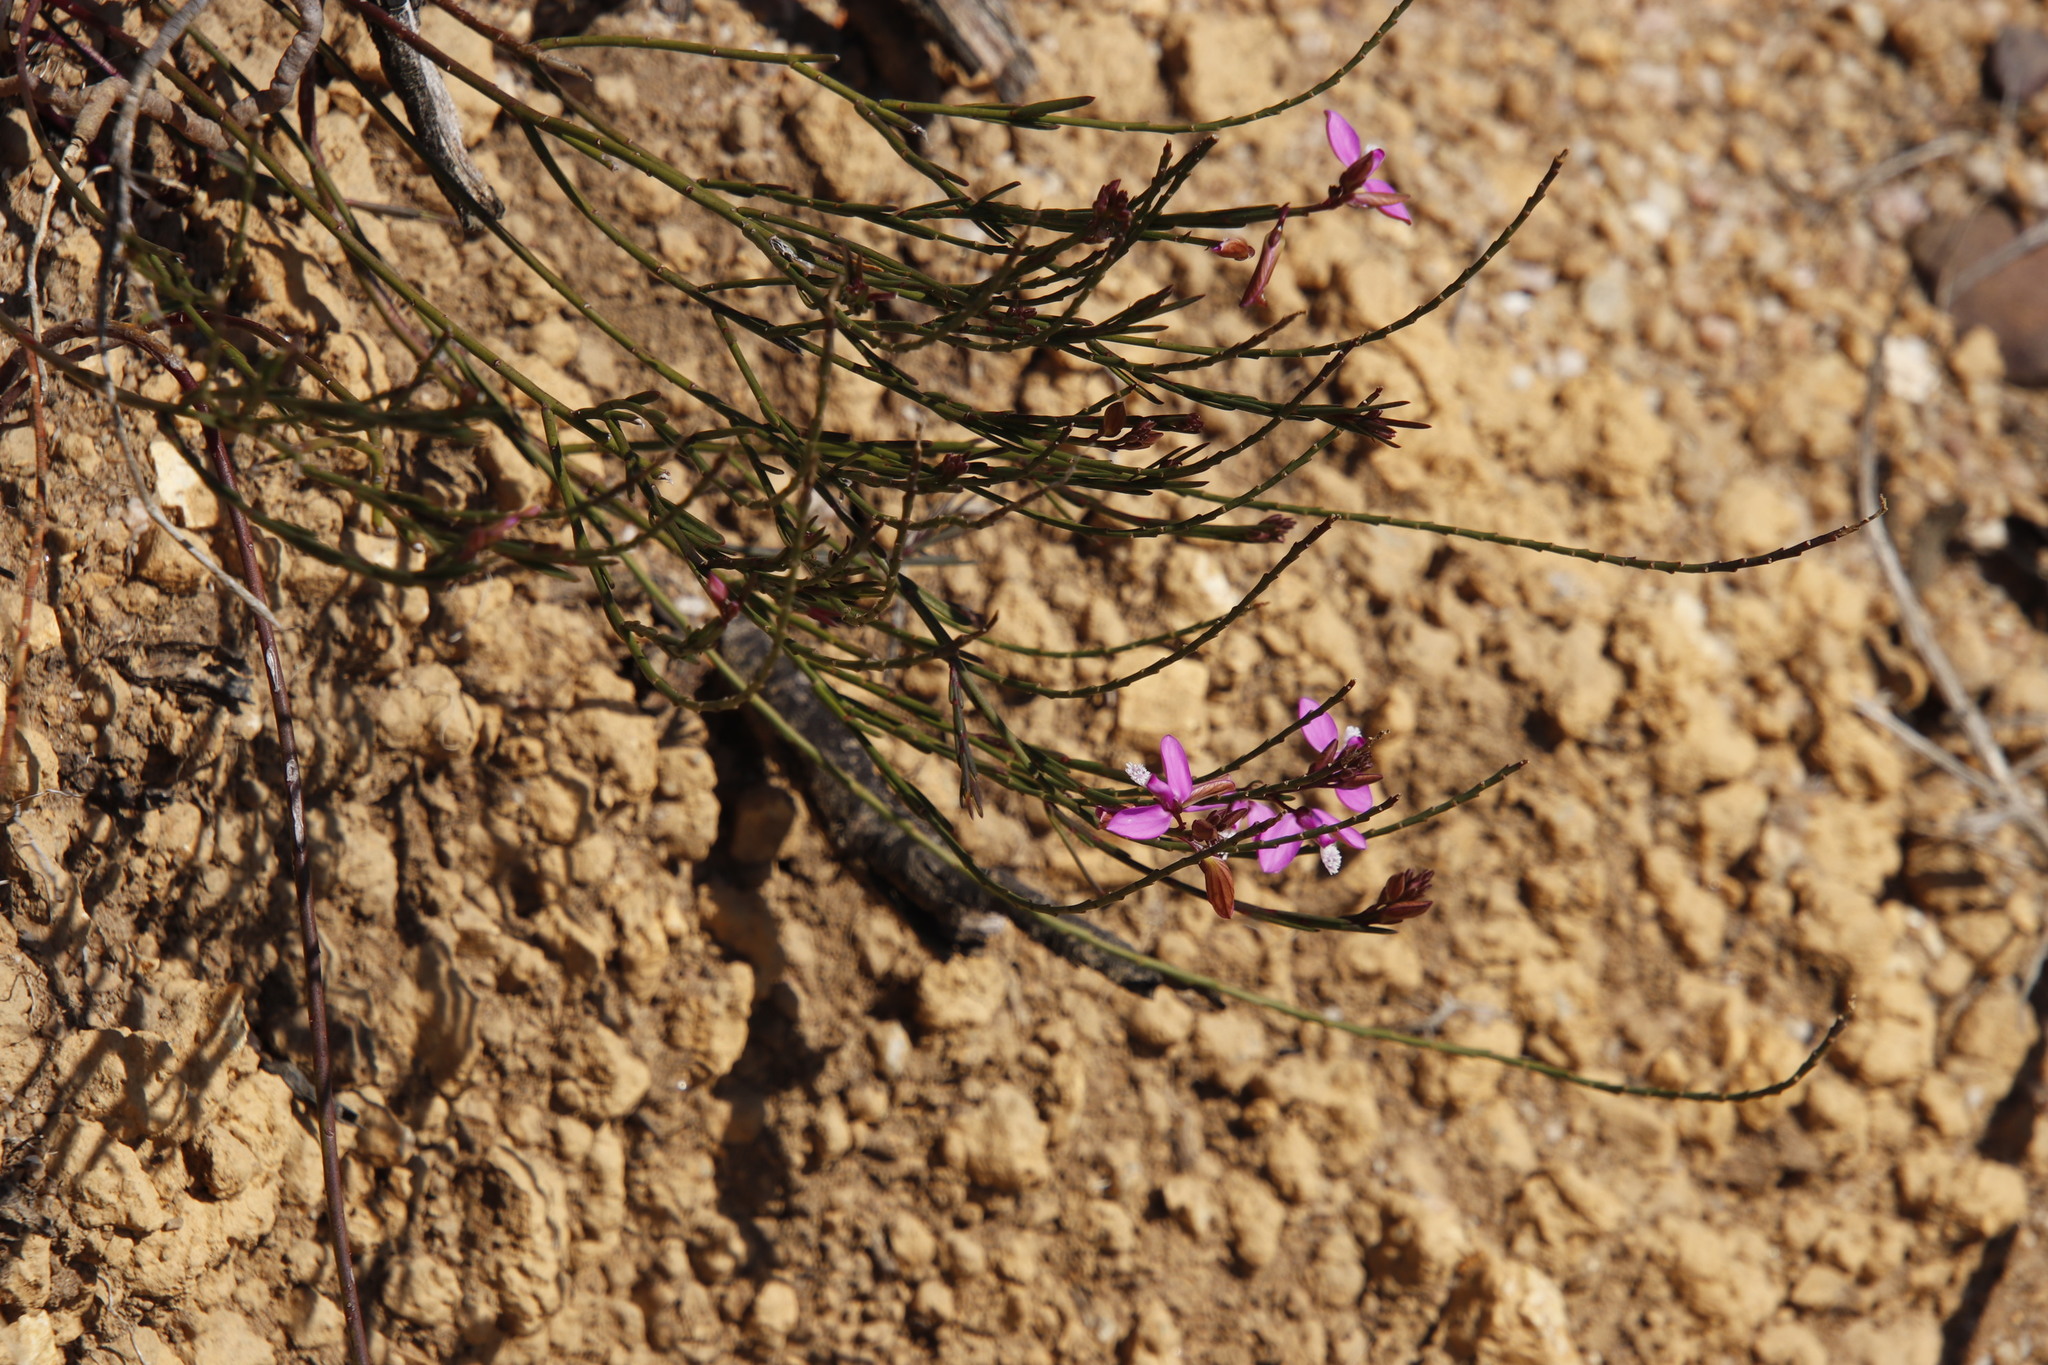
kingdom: Plantae
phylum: Tracheophyta
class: Magnoliopsida
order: Fabales
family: Polygalaceae
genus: Polygala
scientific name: Polygala garcini
